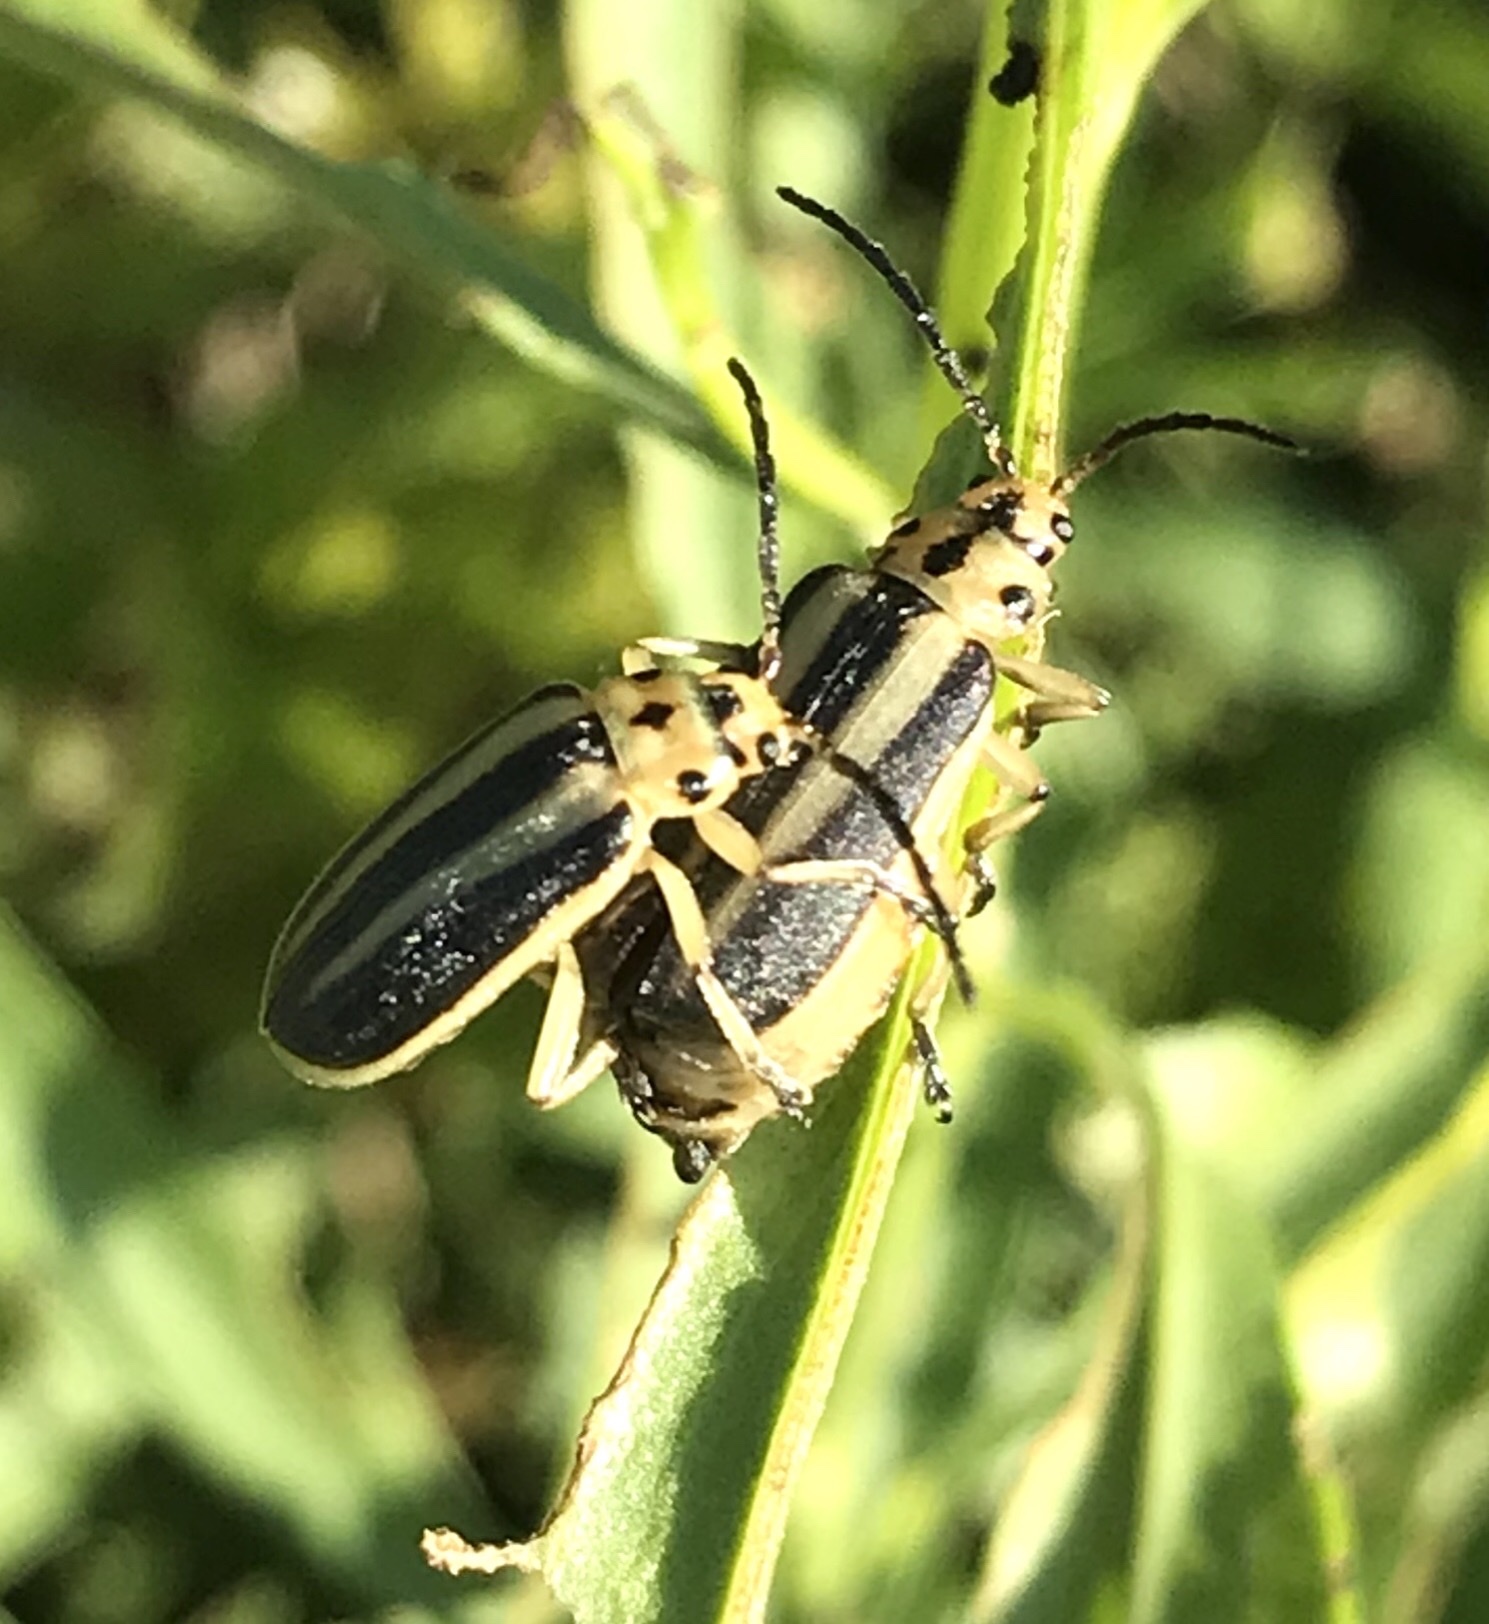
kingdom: Animalia
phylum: Arthropoda
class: Insecta
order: Coleoptera
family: Chrysomelidae
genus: Trirhabda
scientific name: Trirhabda bacharidis
